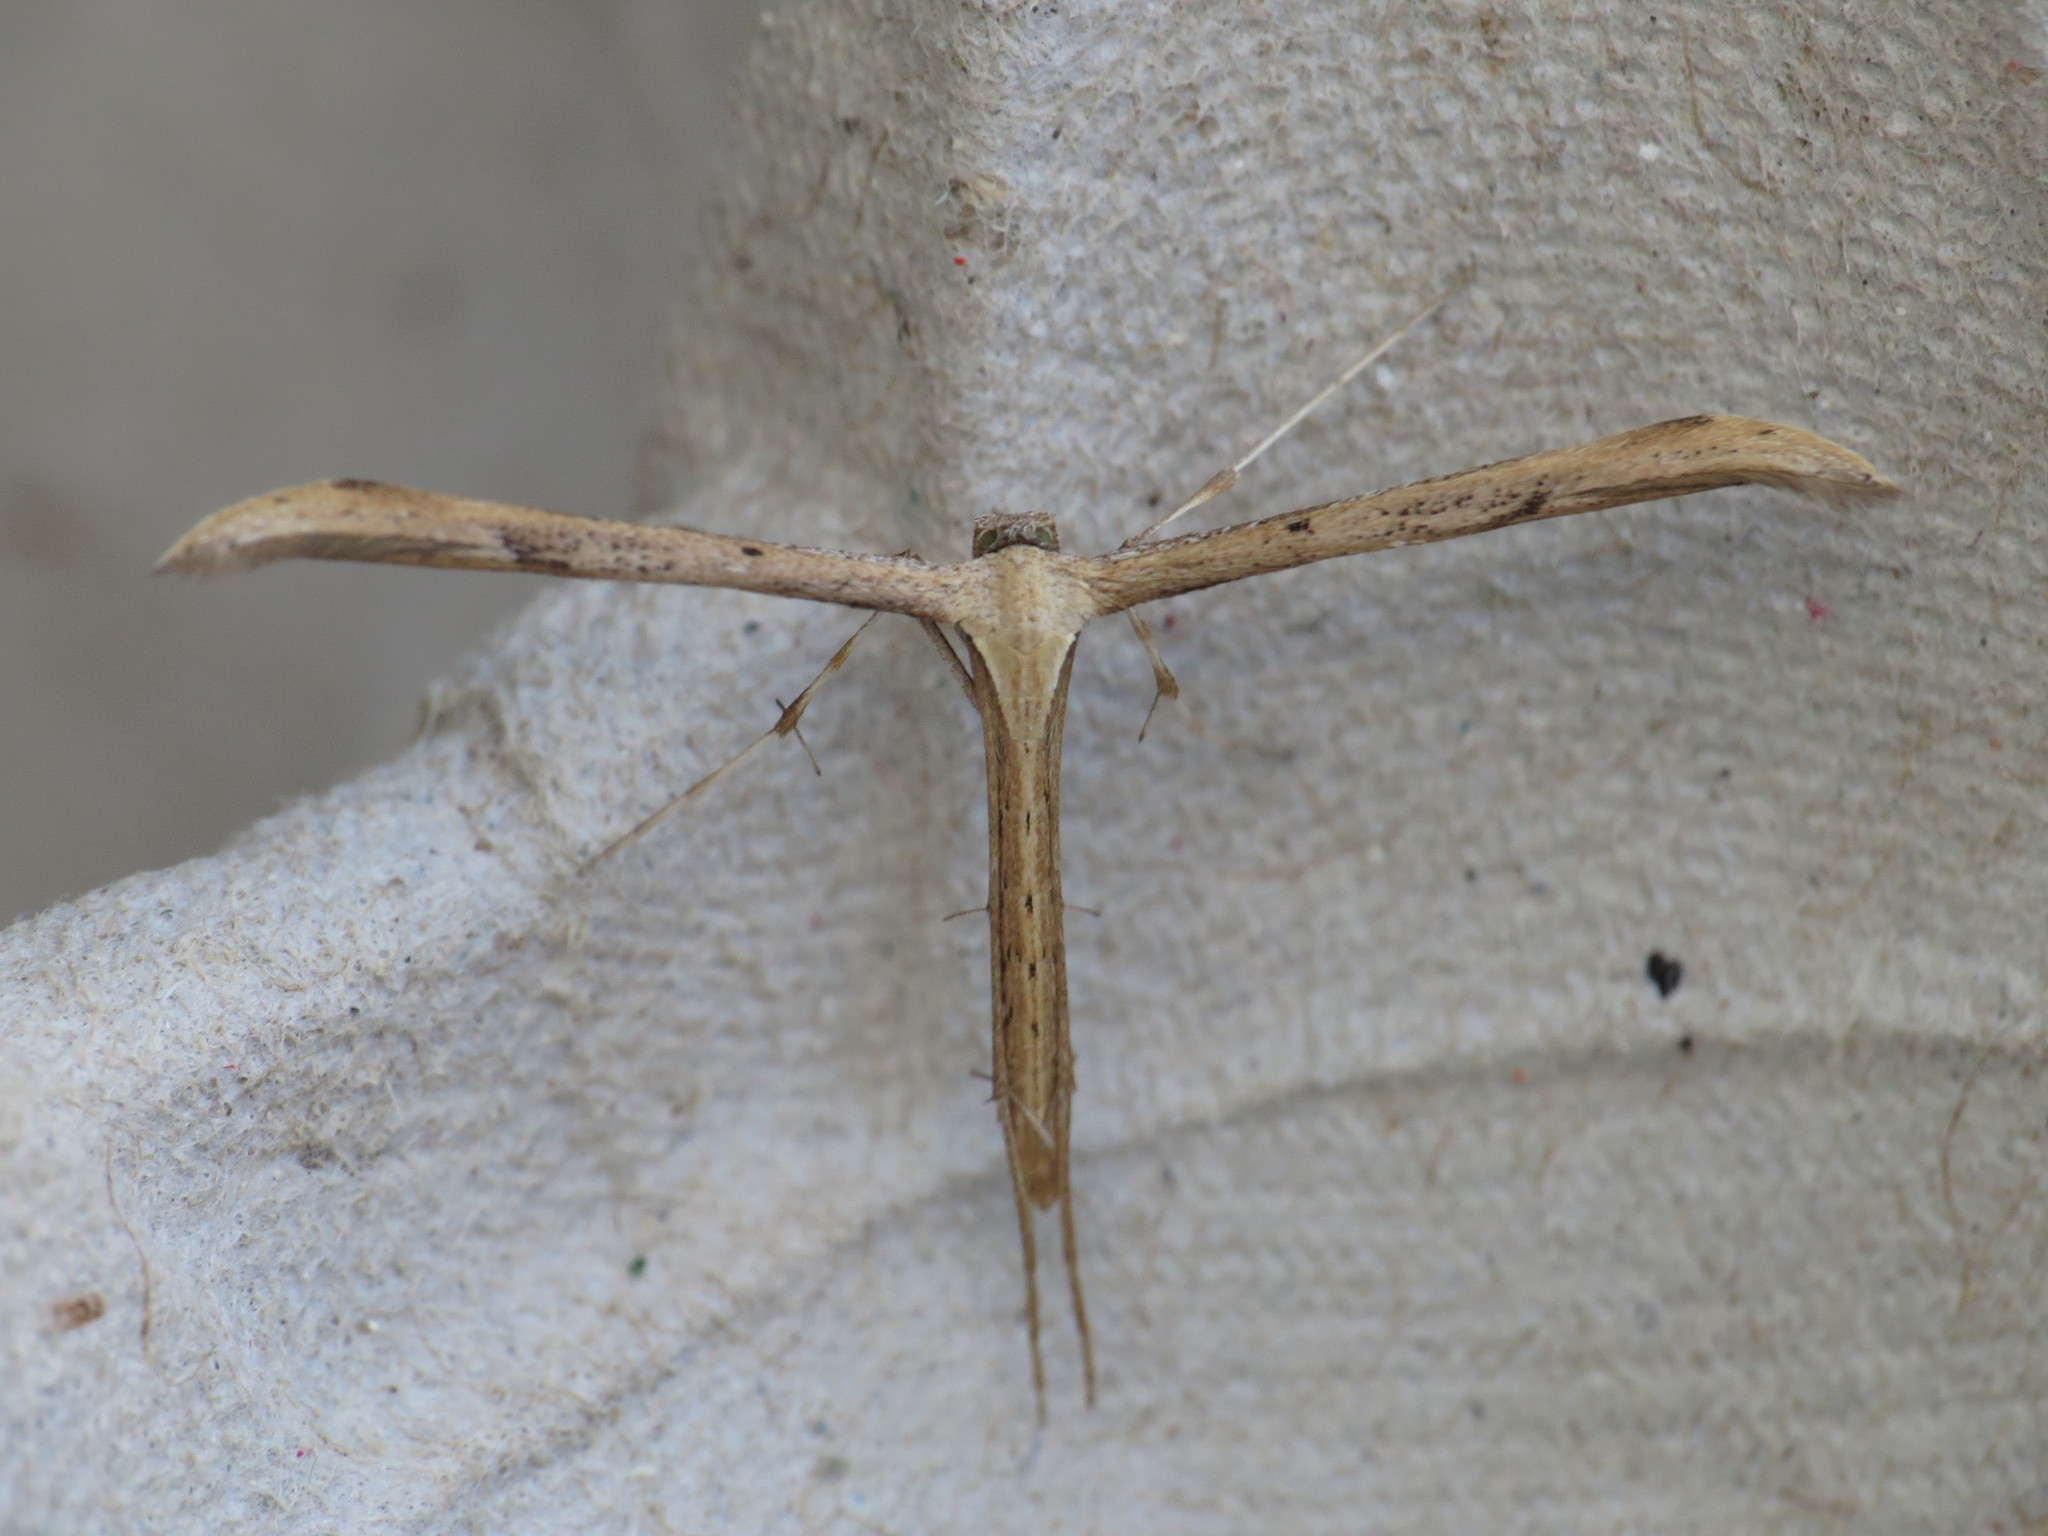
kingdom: Animalia
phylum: Arthropoda
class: Insecta
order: Lepidoptera
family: Pterophoridae
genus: Emmelina
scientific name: Emmelina monodactyla
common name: Common plume
